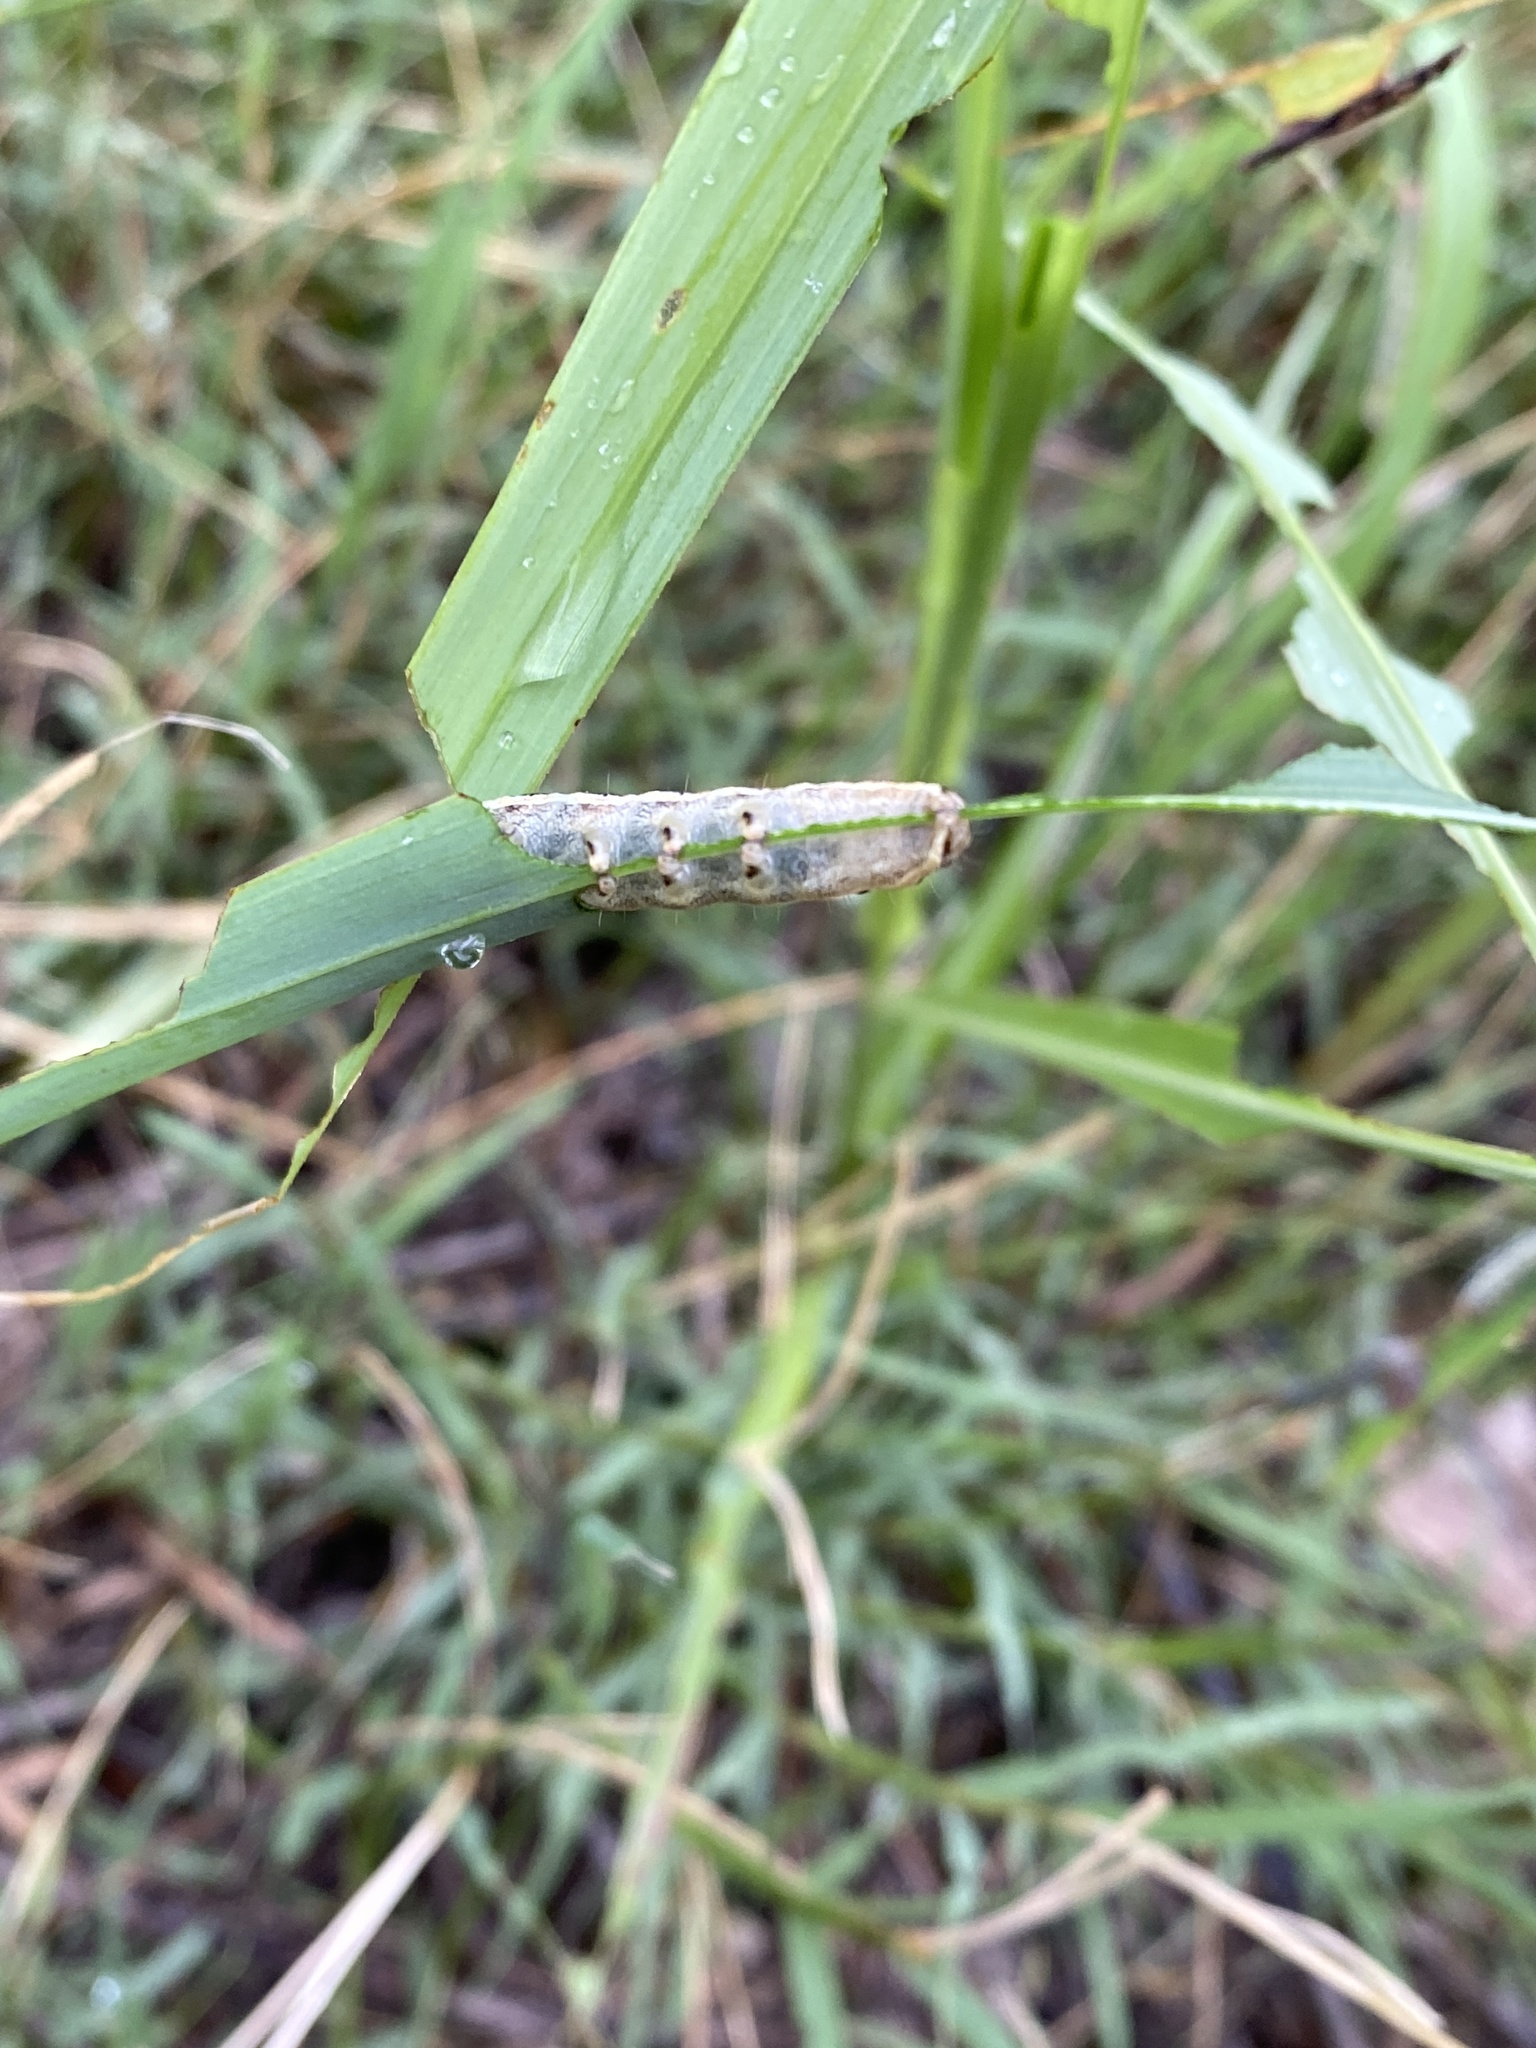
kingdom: Animalia
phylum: Arthropoda
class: Insecta
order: Lepidoptera
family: Noctuidae
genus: Spodoptera
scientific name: Spodoptera frugiperda
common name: Fall armyworm
